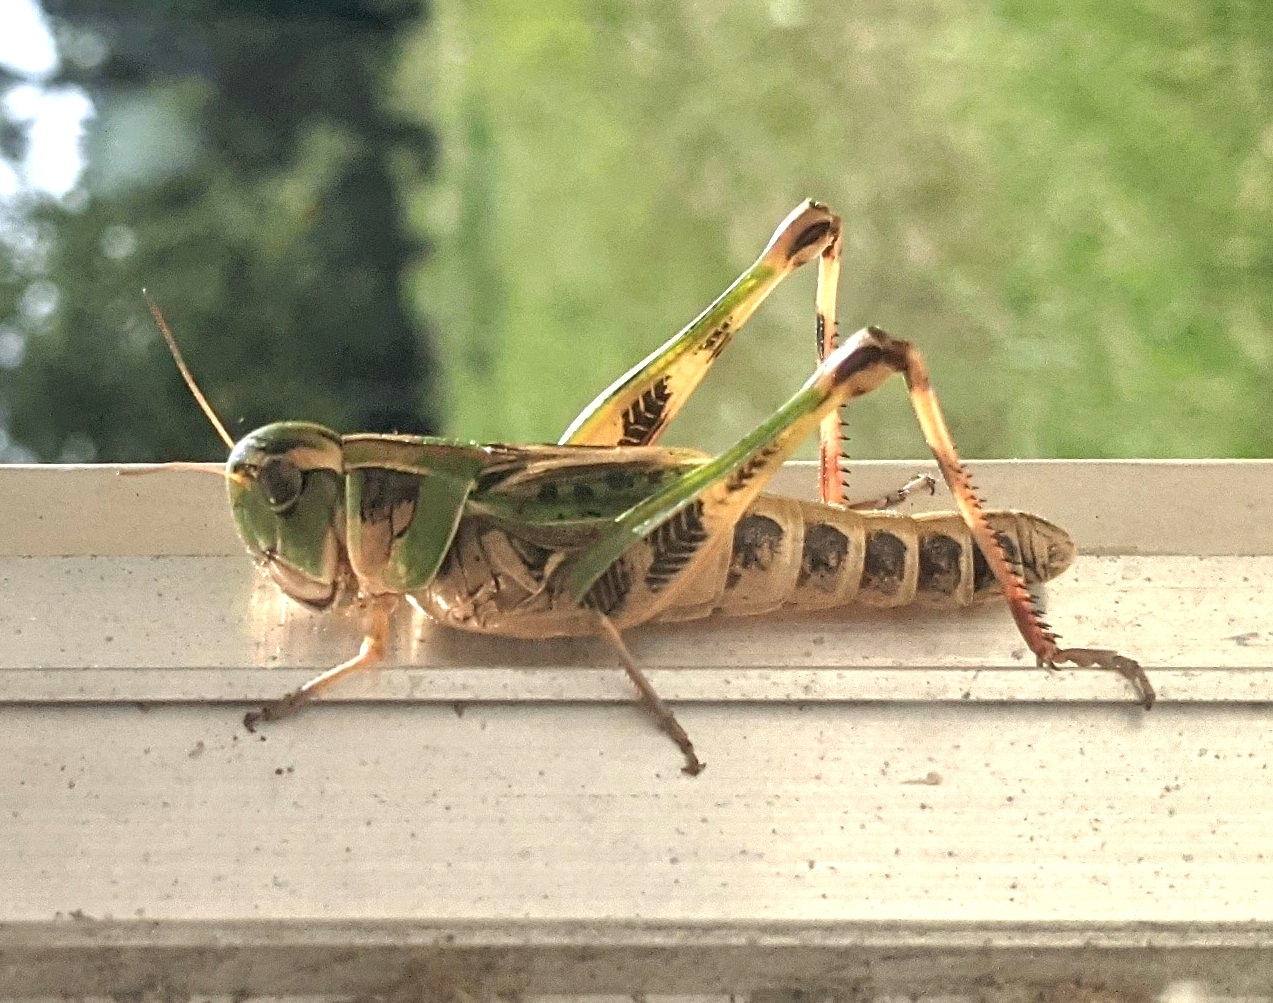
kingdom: Animalia
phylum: Arthropoda
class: Insecta
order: Orthoptera
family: Acrididae
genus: Boopedon
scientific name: Boopedon gracile
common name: Graceful range grasshopper
